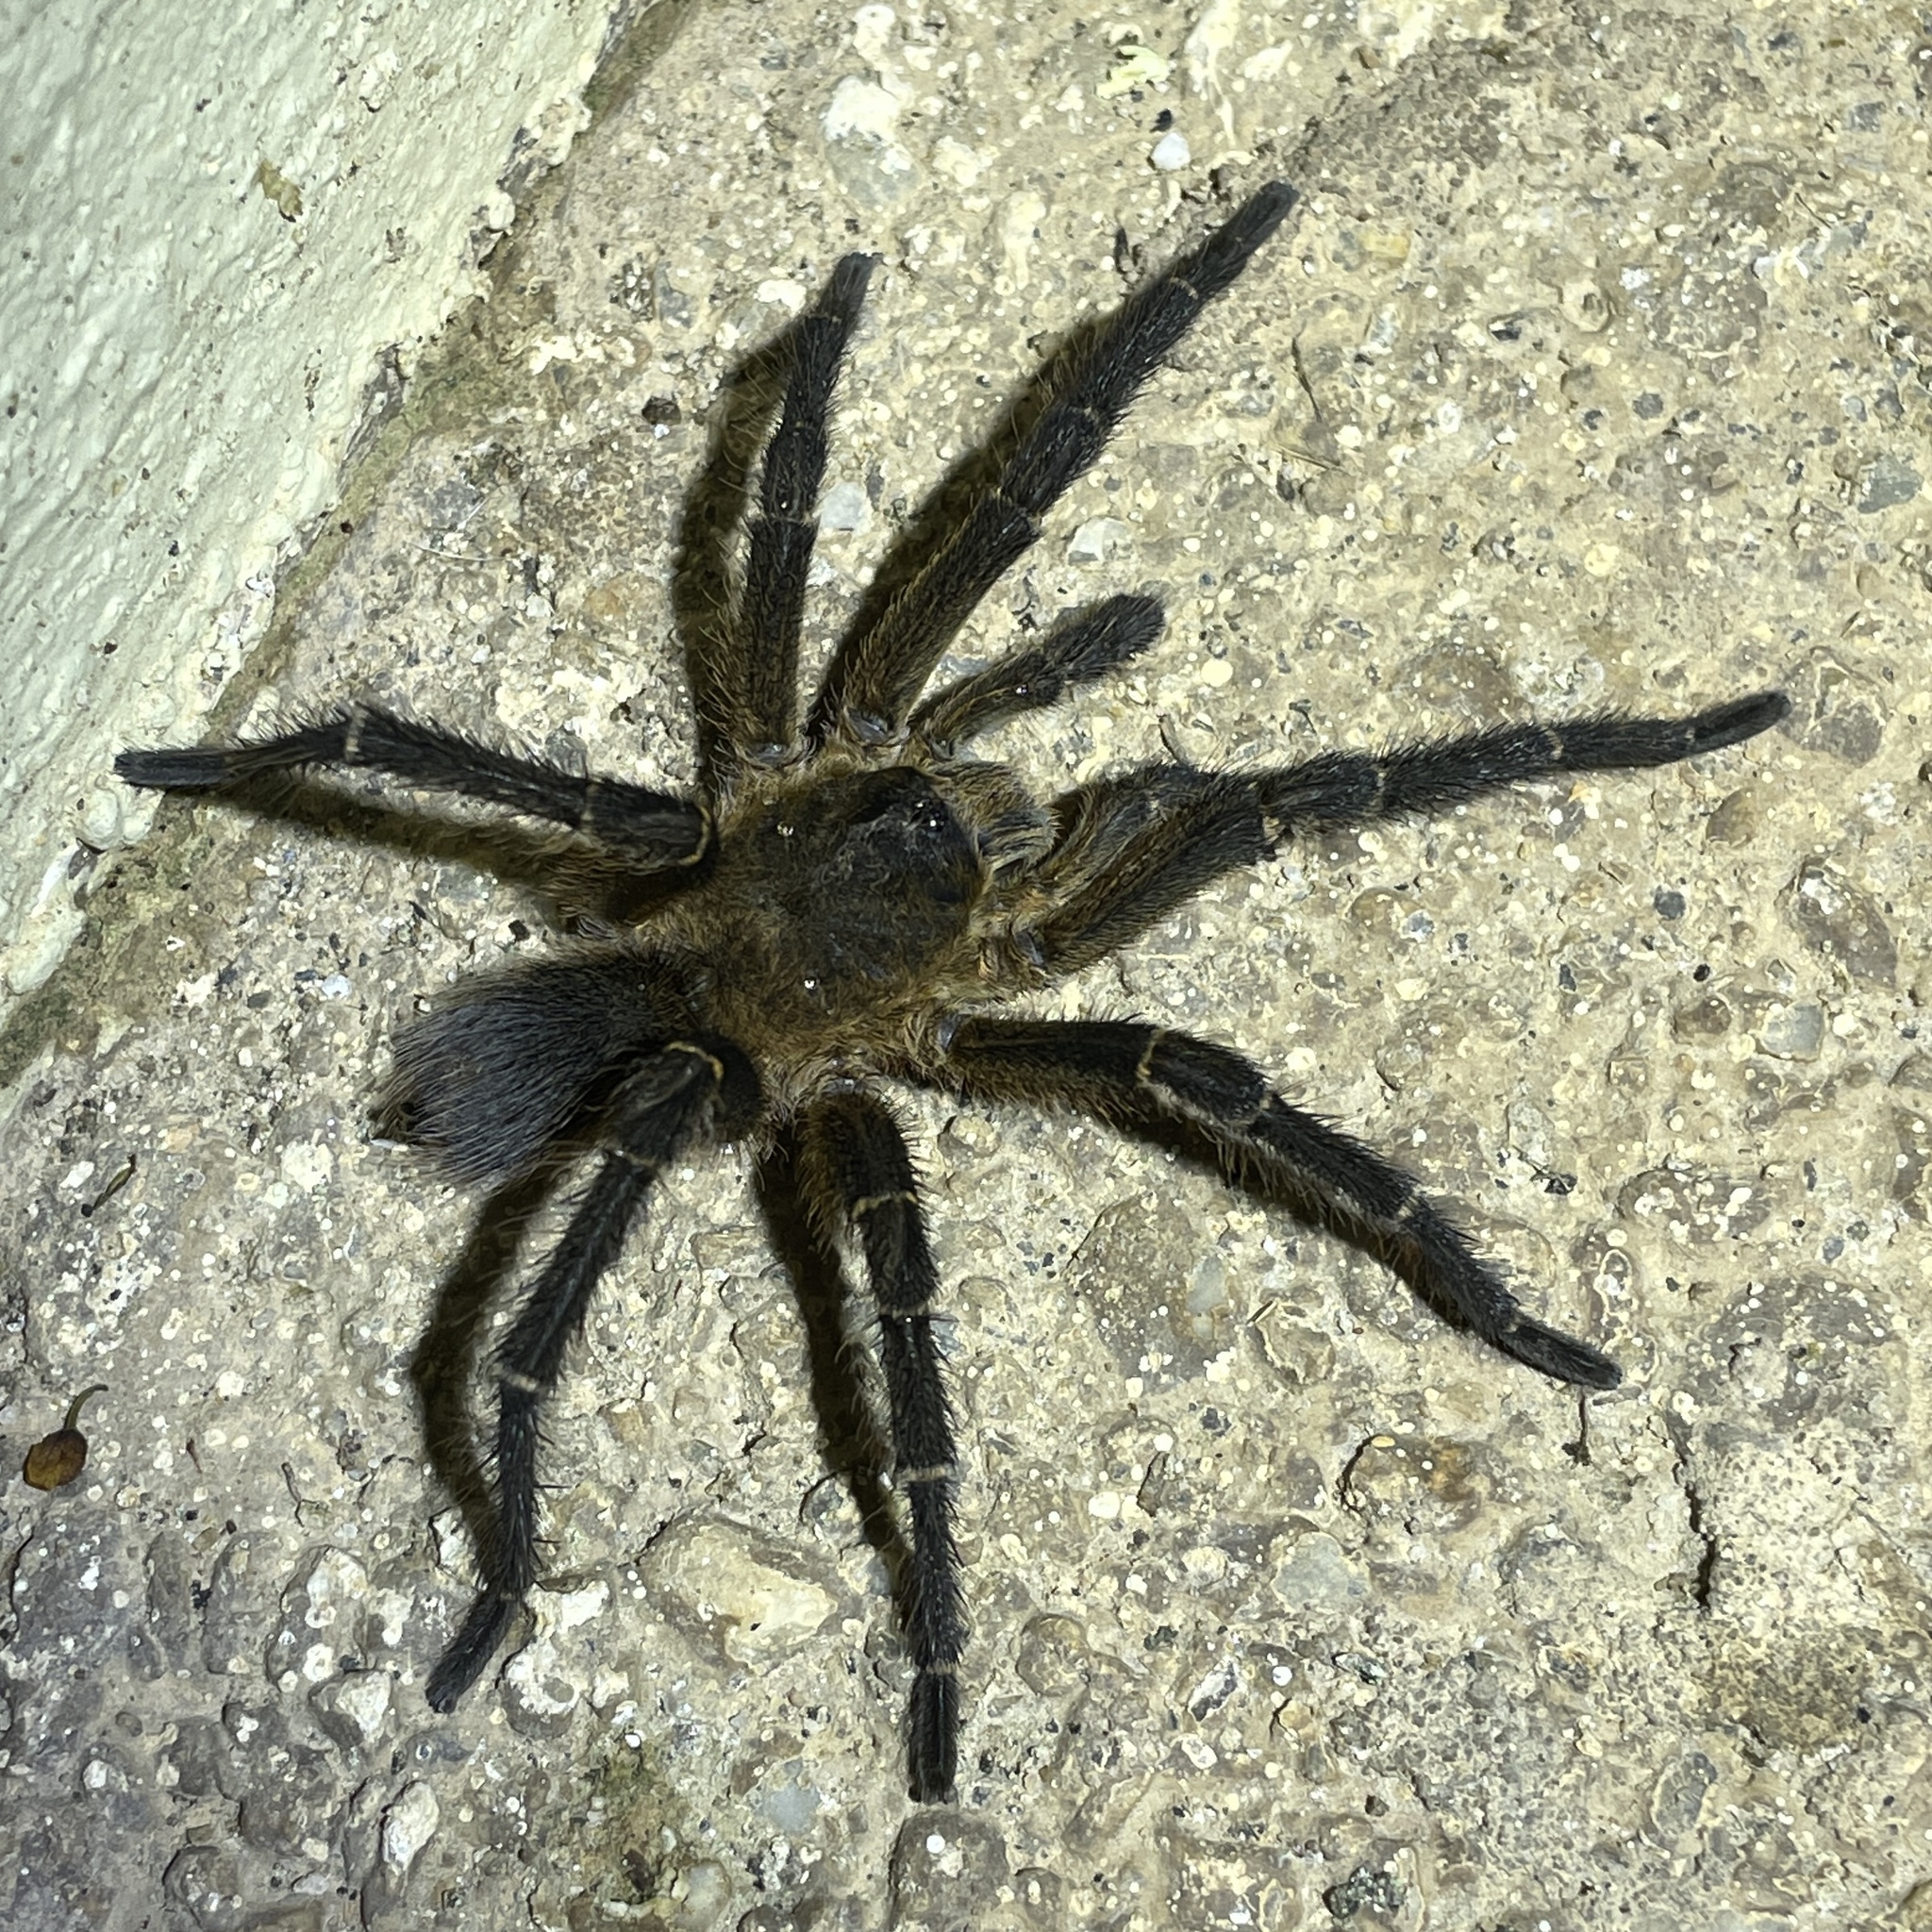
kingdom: Animalia
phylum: Arthropoda
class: Arachnida
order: Araneae
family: Theraphosidae
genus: Spinosatibiapalpus
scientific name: Spinosatibiapalpus trinitatis
